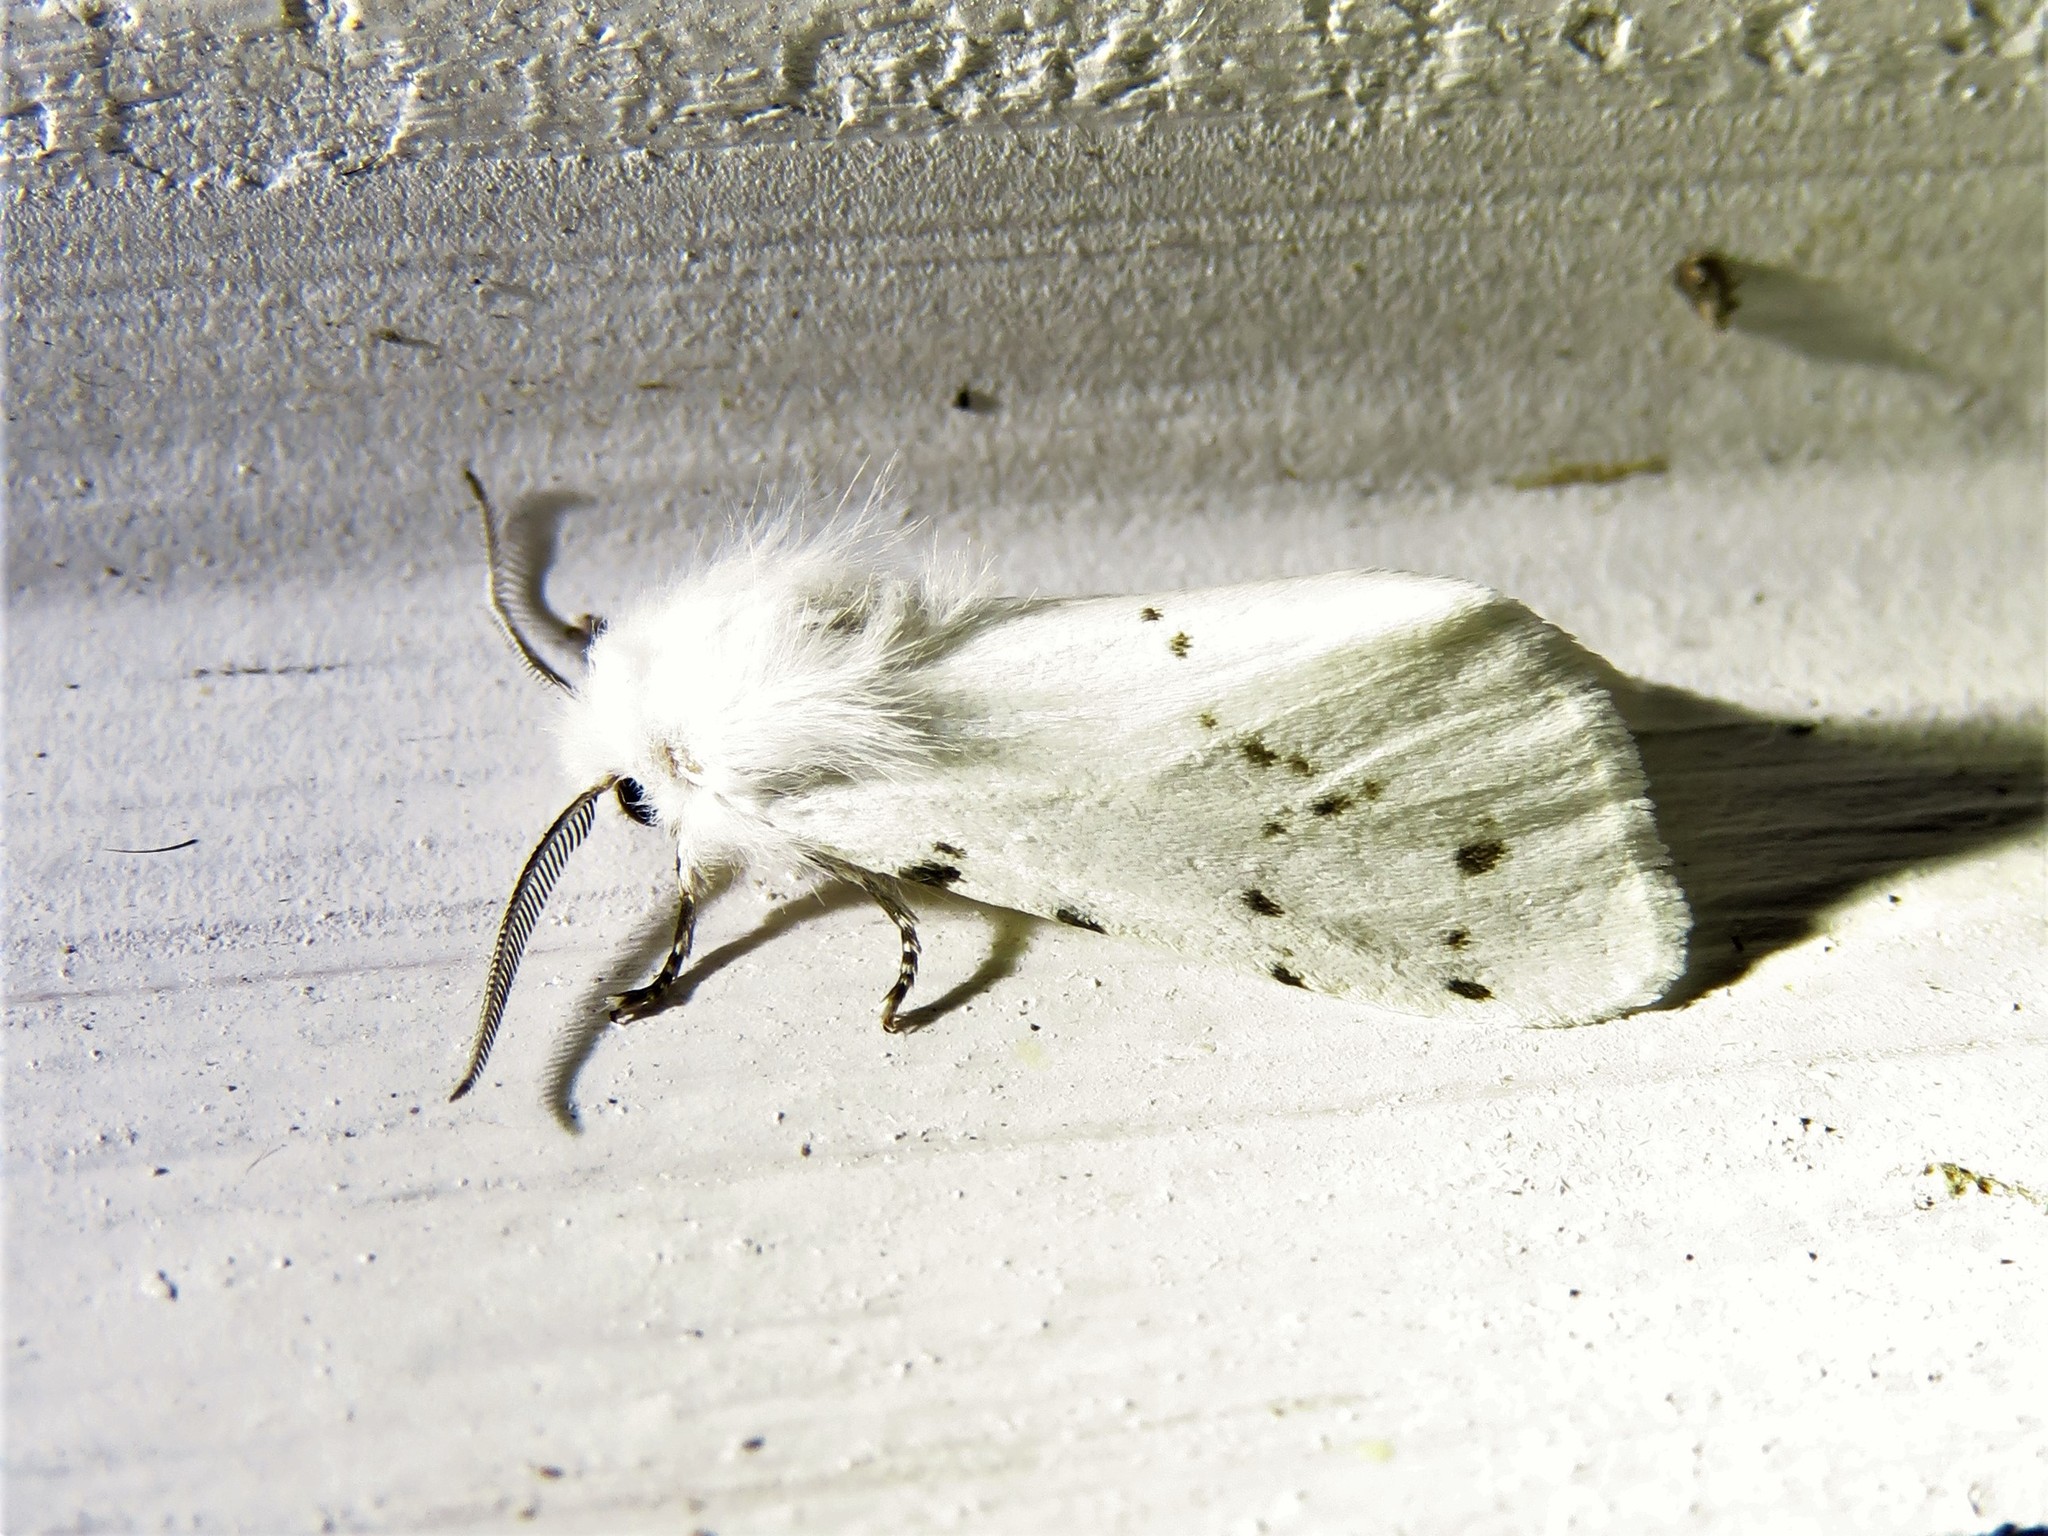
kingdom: Animalia
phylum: Arthropoda
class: Insecta
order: Lepidoptera
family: Erebidae
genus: Hyphantria
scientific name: Hyphantria cunea
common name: American white moth
